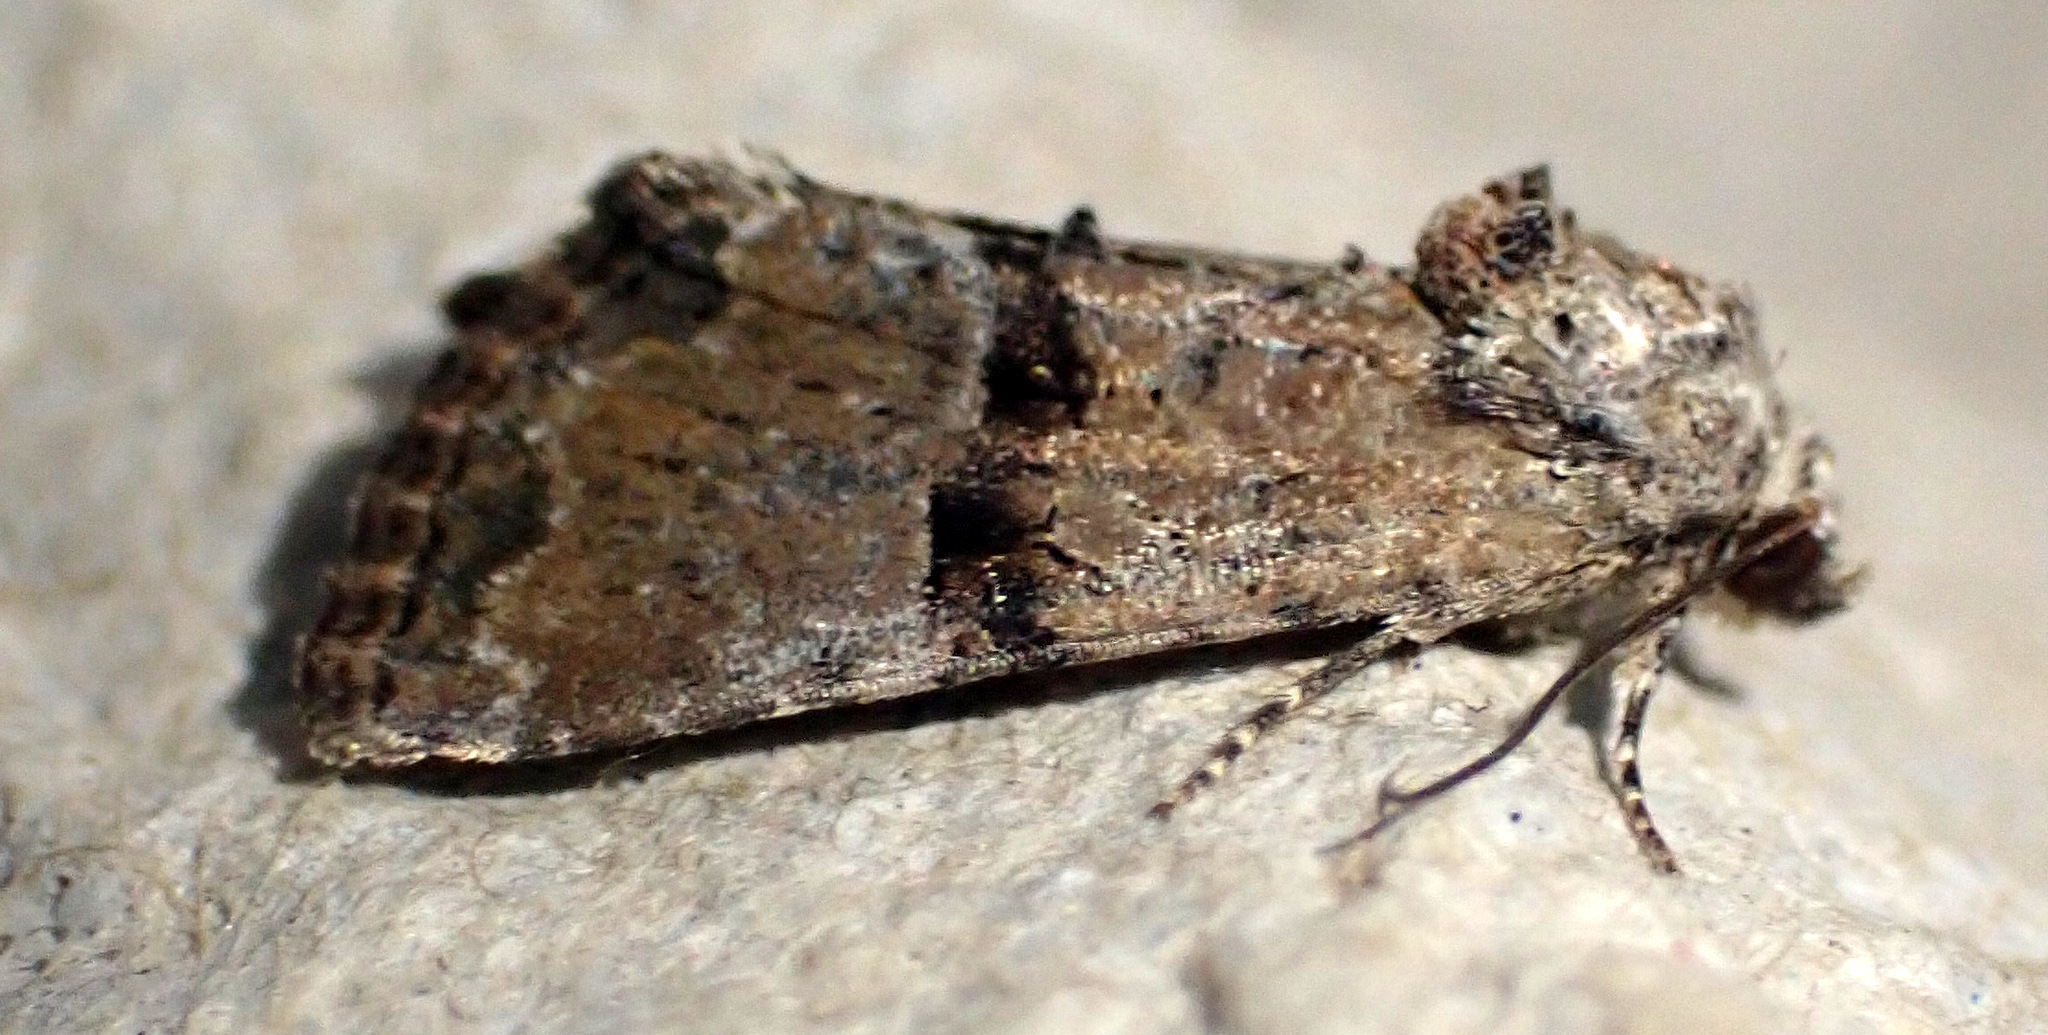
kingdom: Animalia
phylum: Arthropoda
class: Insecta
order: Lepidoptera
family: Noctuidae
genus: Mesoligia
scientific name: Mesoligia furuncula
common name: Cloaked minor
